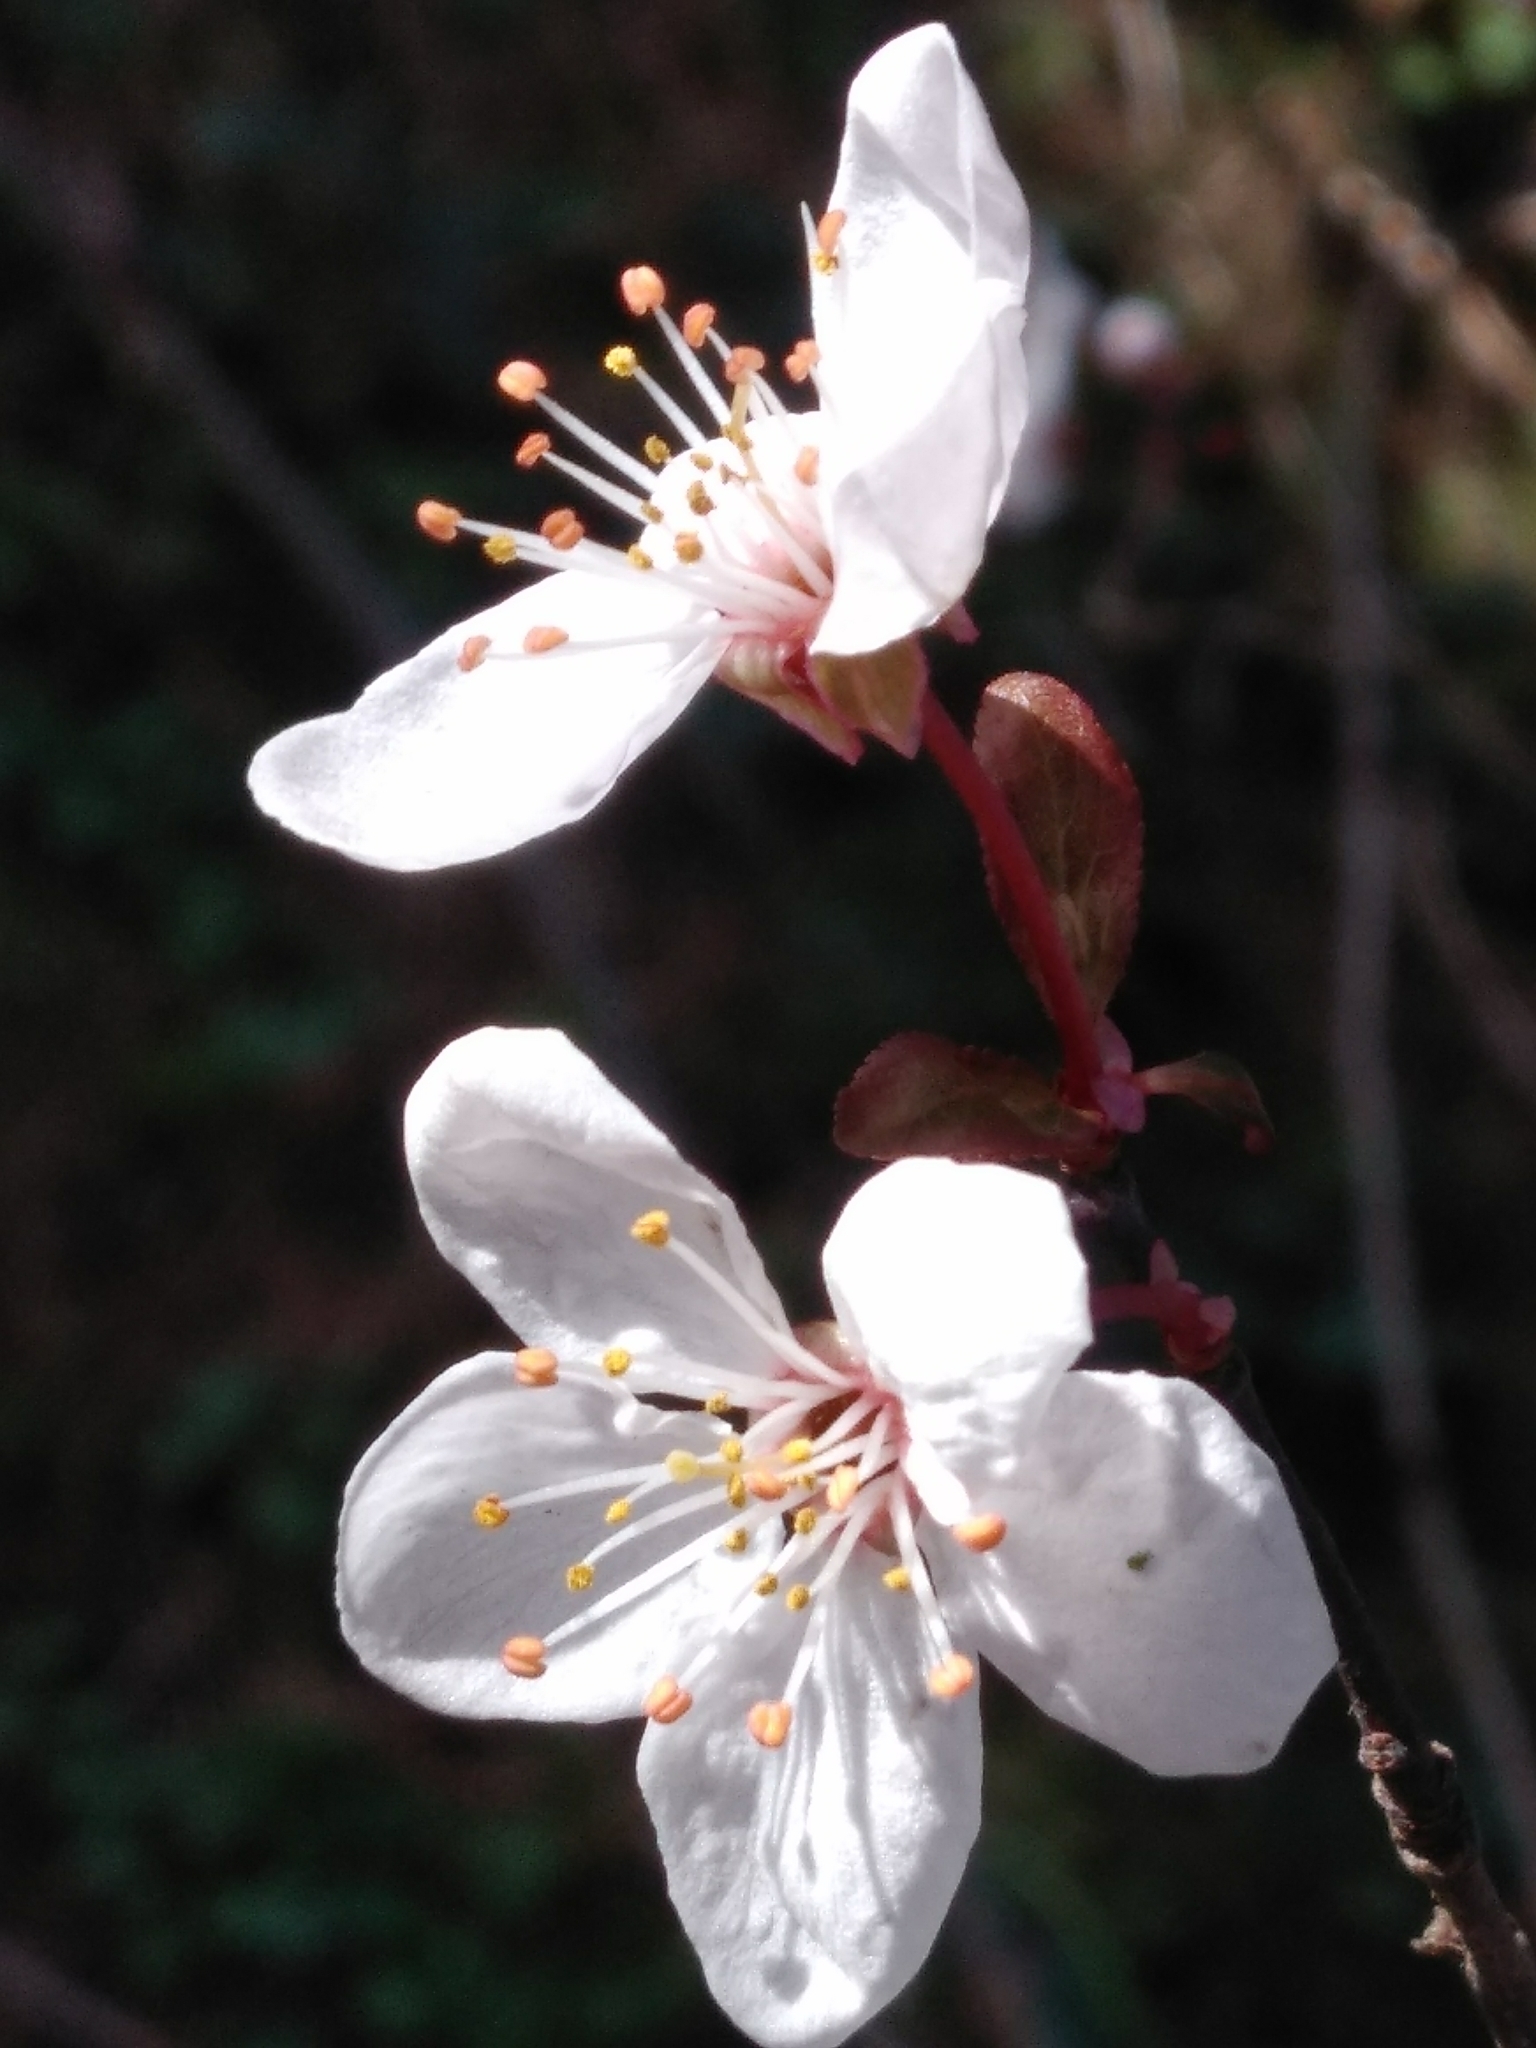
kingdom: Plantae
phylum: Tracheophyta
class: Magnoliopsida
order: Rosales
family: Rosaceae
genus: Prunus
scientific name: Prunus cerasifera
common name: Cherry plum
